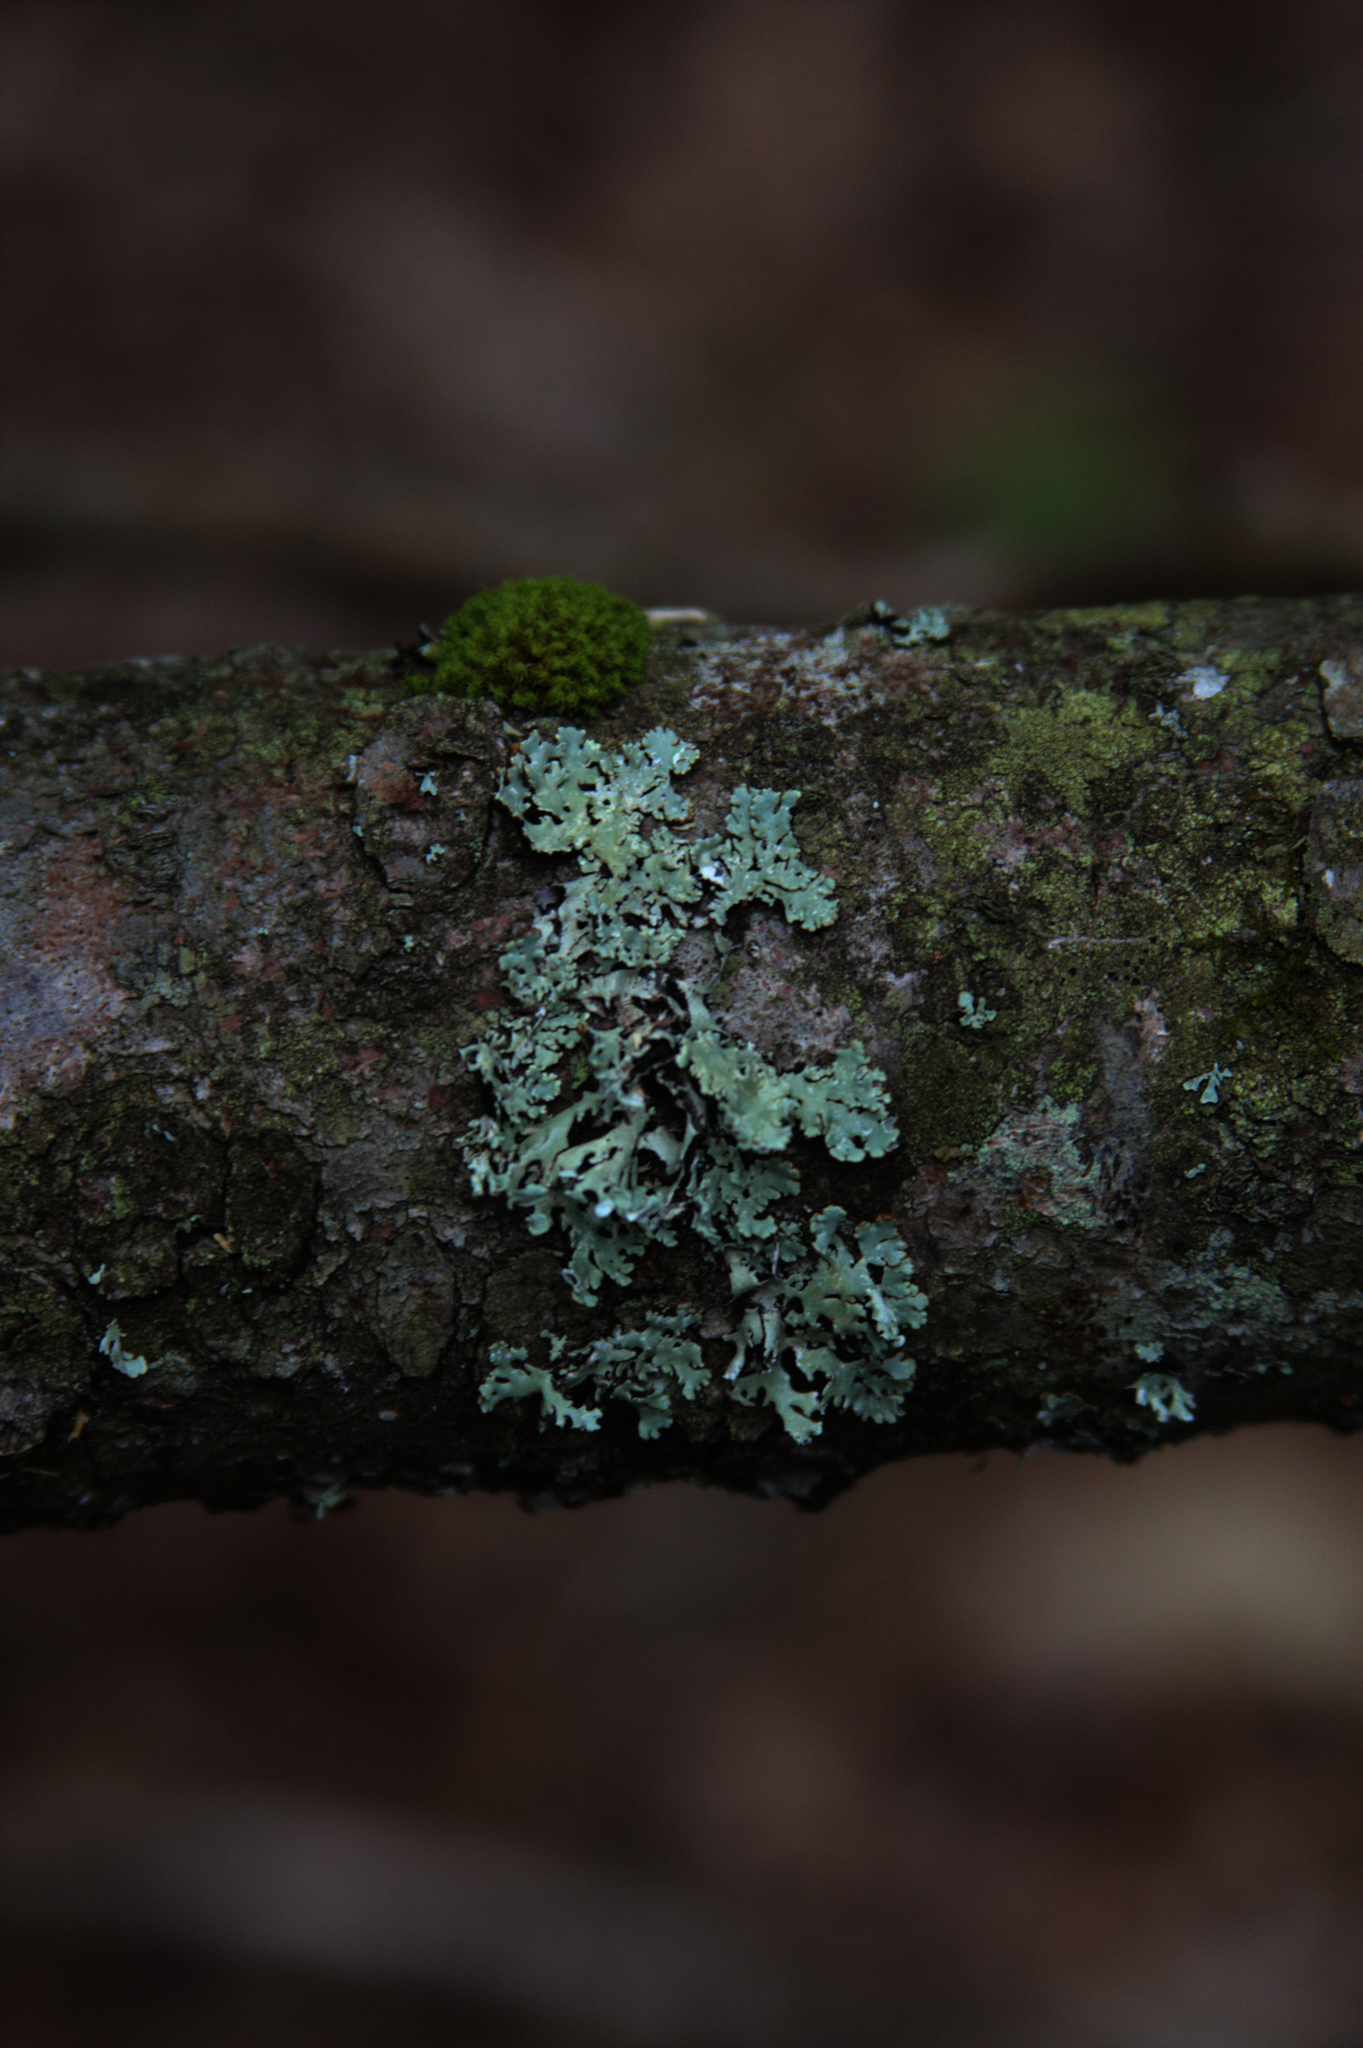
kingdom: Plantae
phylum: Bryophyta
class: Bryopsida
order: Orthotrichales
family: Orthotrichaceae
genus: Ulota
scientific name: Ulota crispa
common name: Crisped pincushion moss
